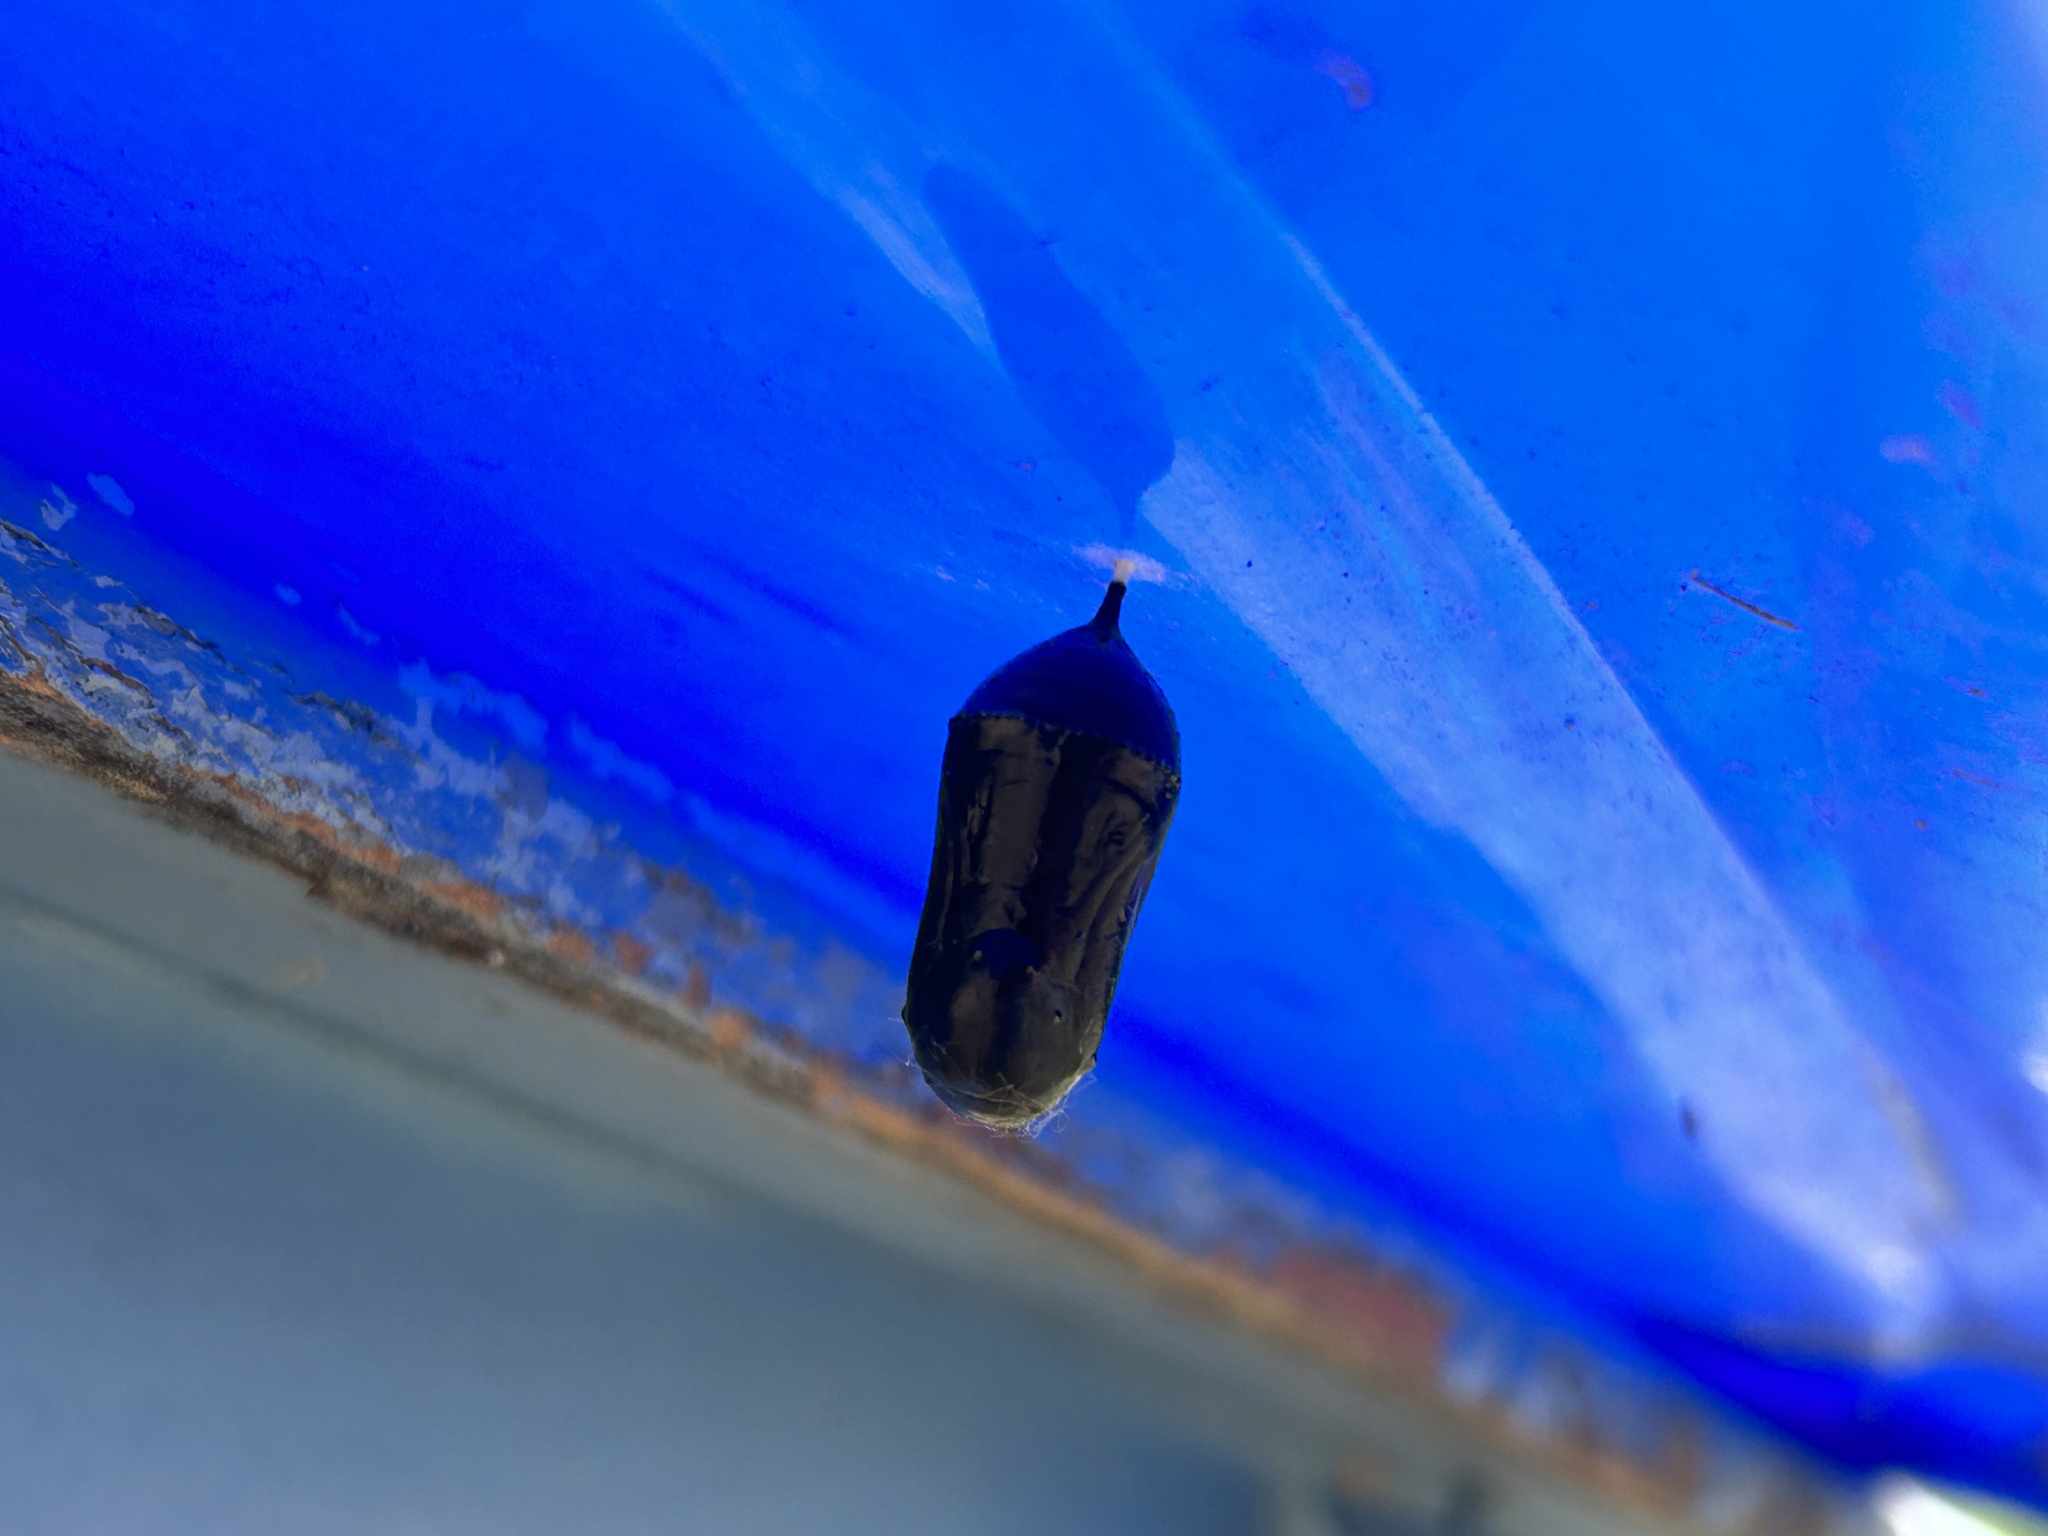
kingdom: Animalia
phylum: Arthropoda
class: Insecta
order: Lepidoptera
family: Nymphalidae
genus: Danaus
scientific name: Danaus plexippus
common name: Monarch
